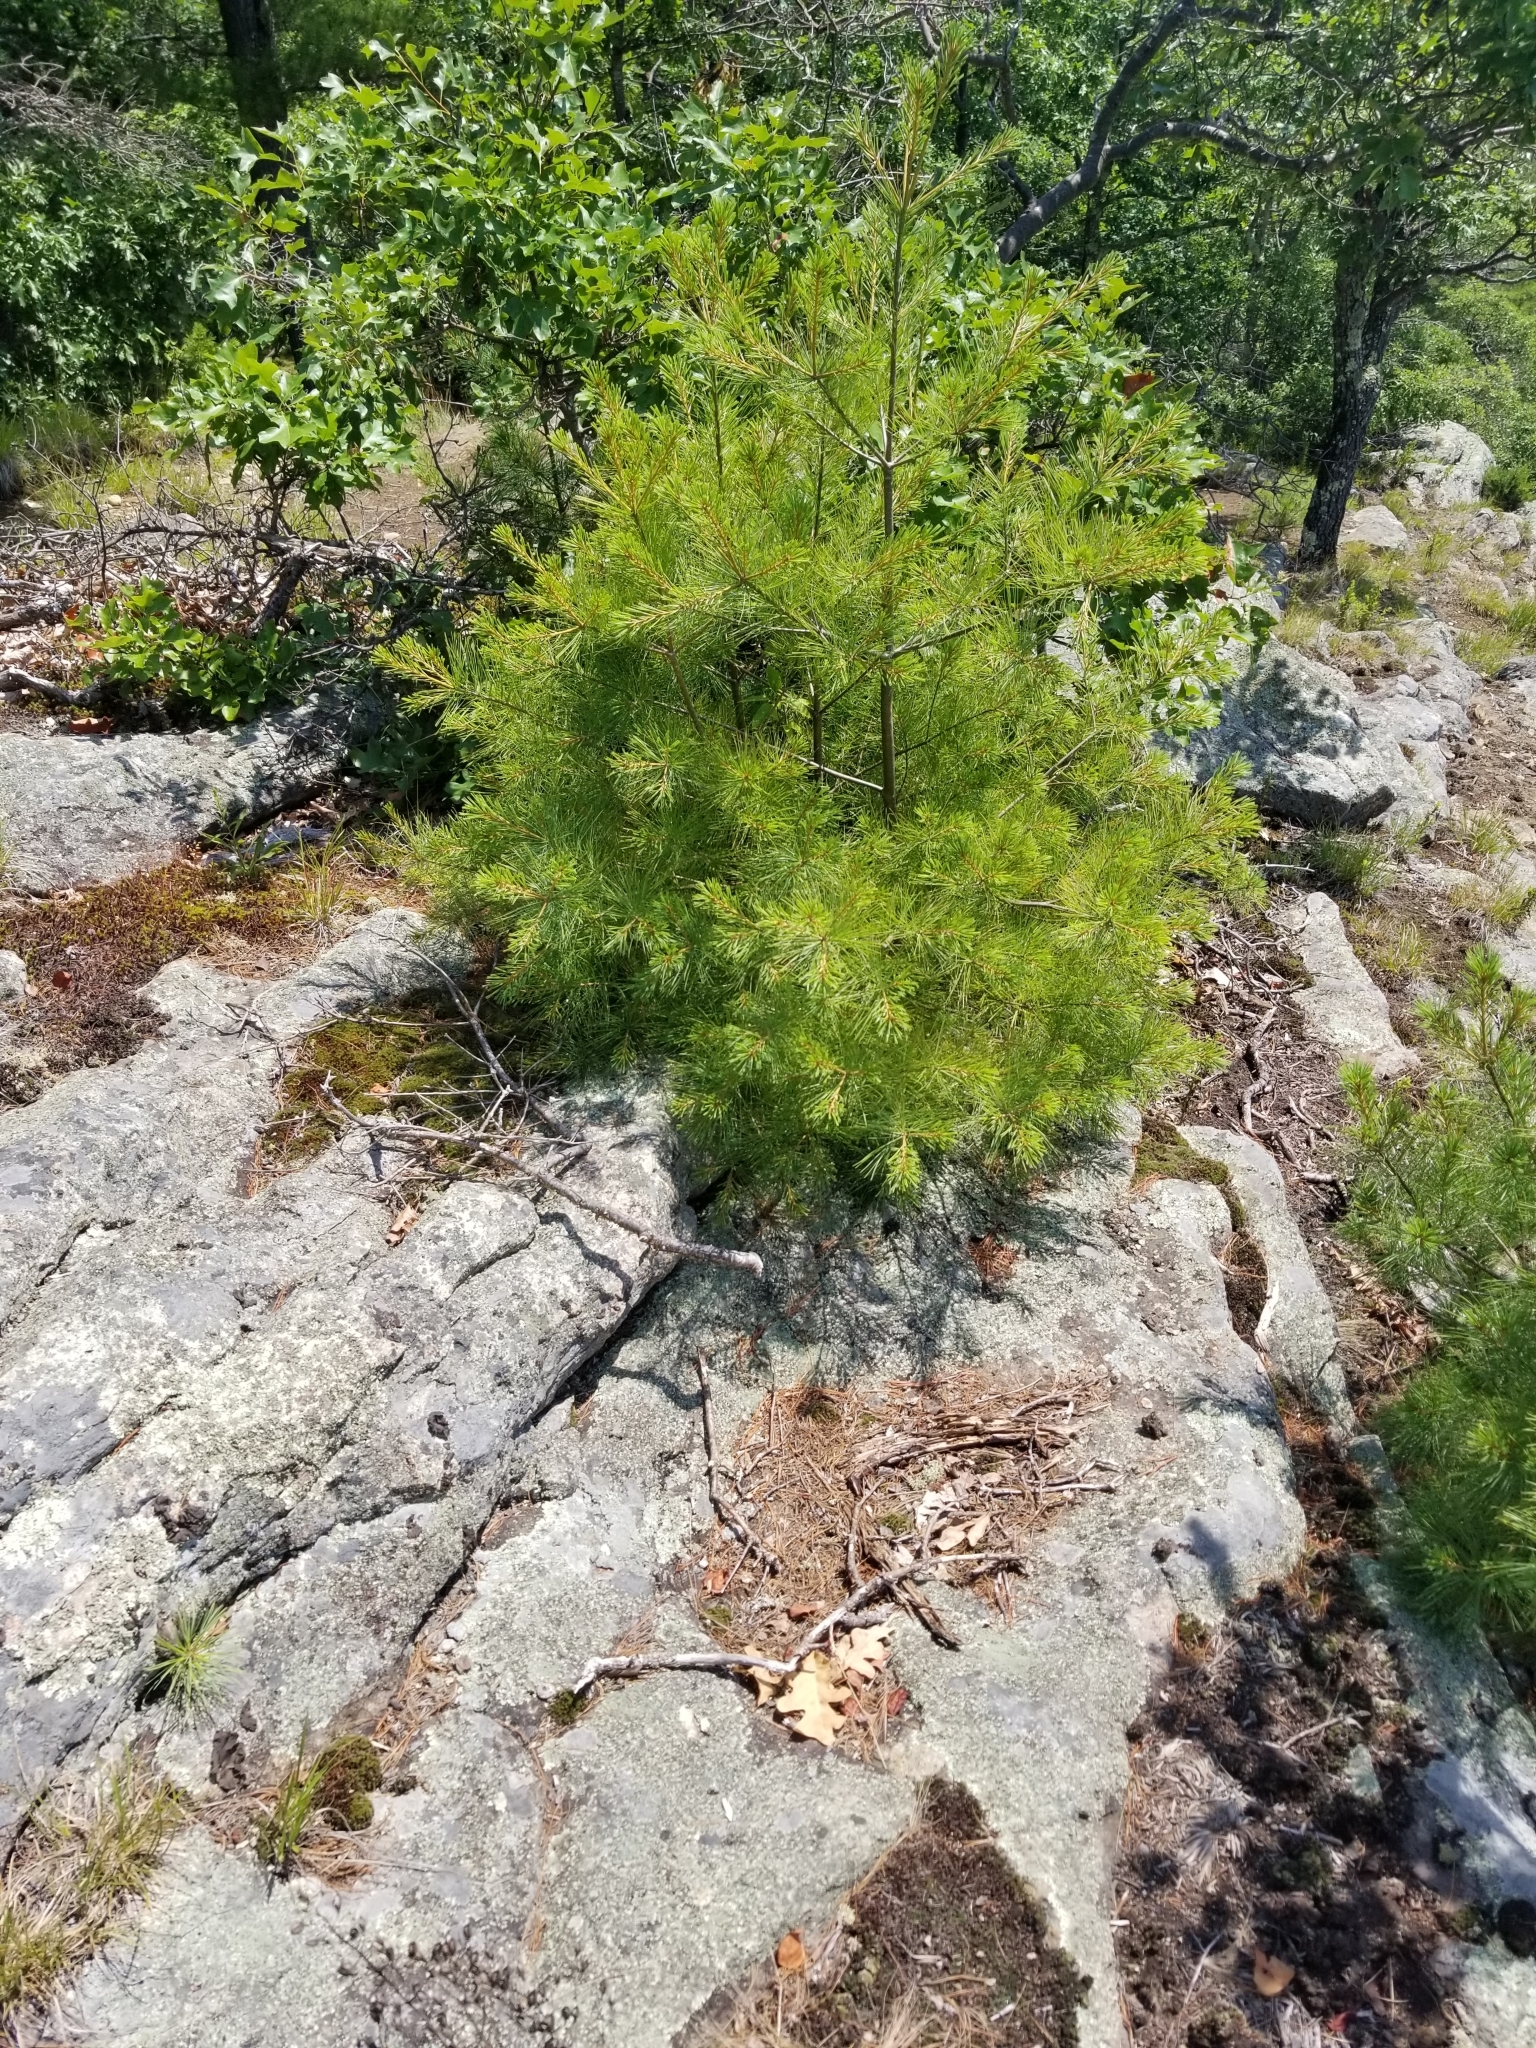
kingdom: Plantae
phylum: Tracheophyta
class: Pinopsida
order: Pinales
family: Pinaceae
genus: Pinus
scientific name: Pinus strobus
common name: Weymouth pine
